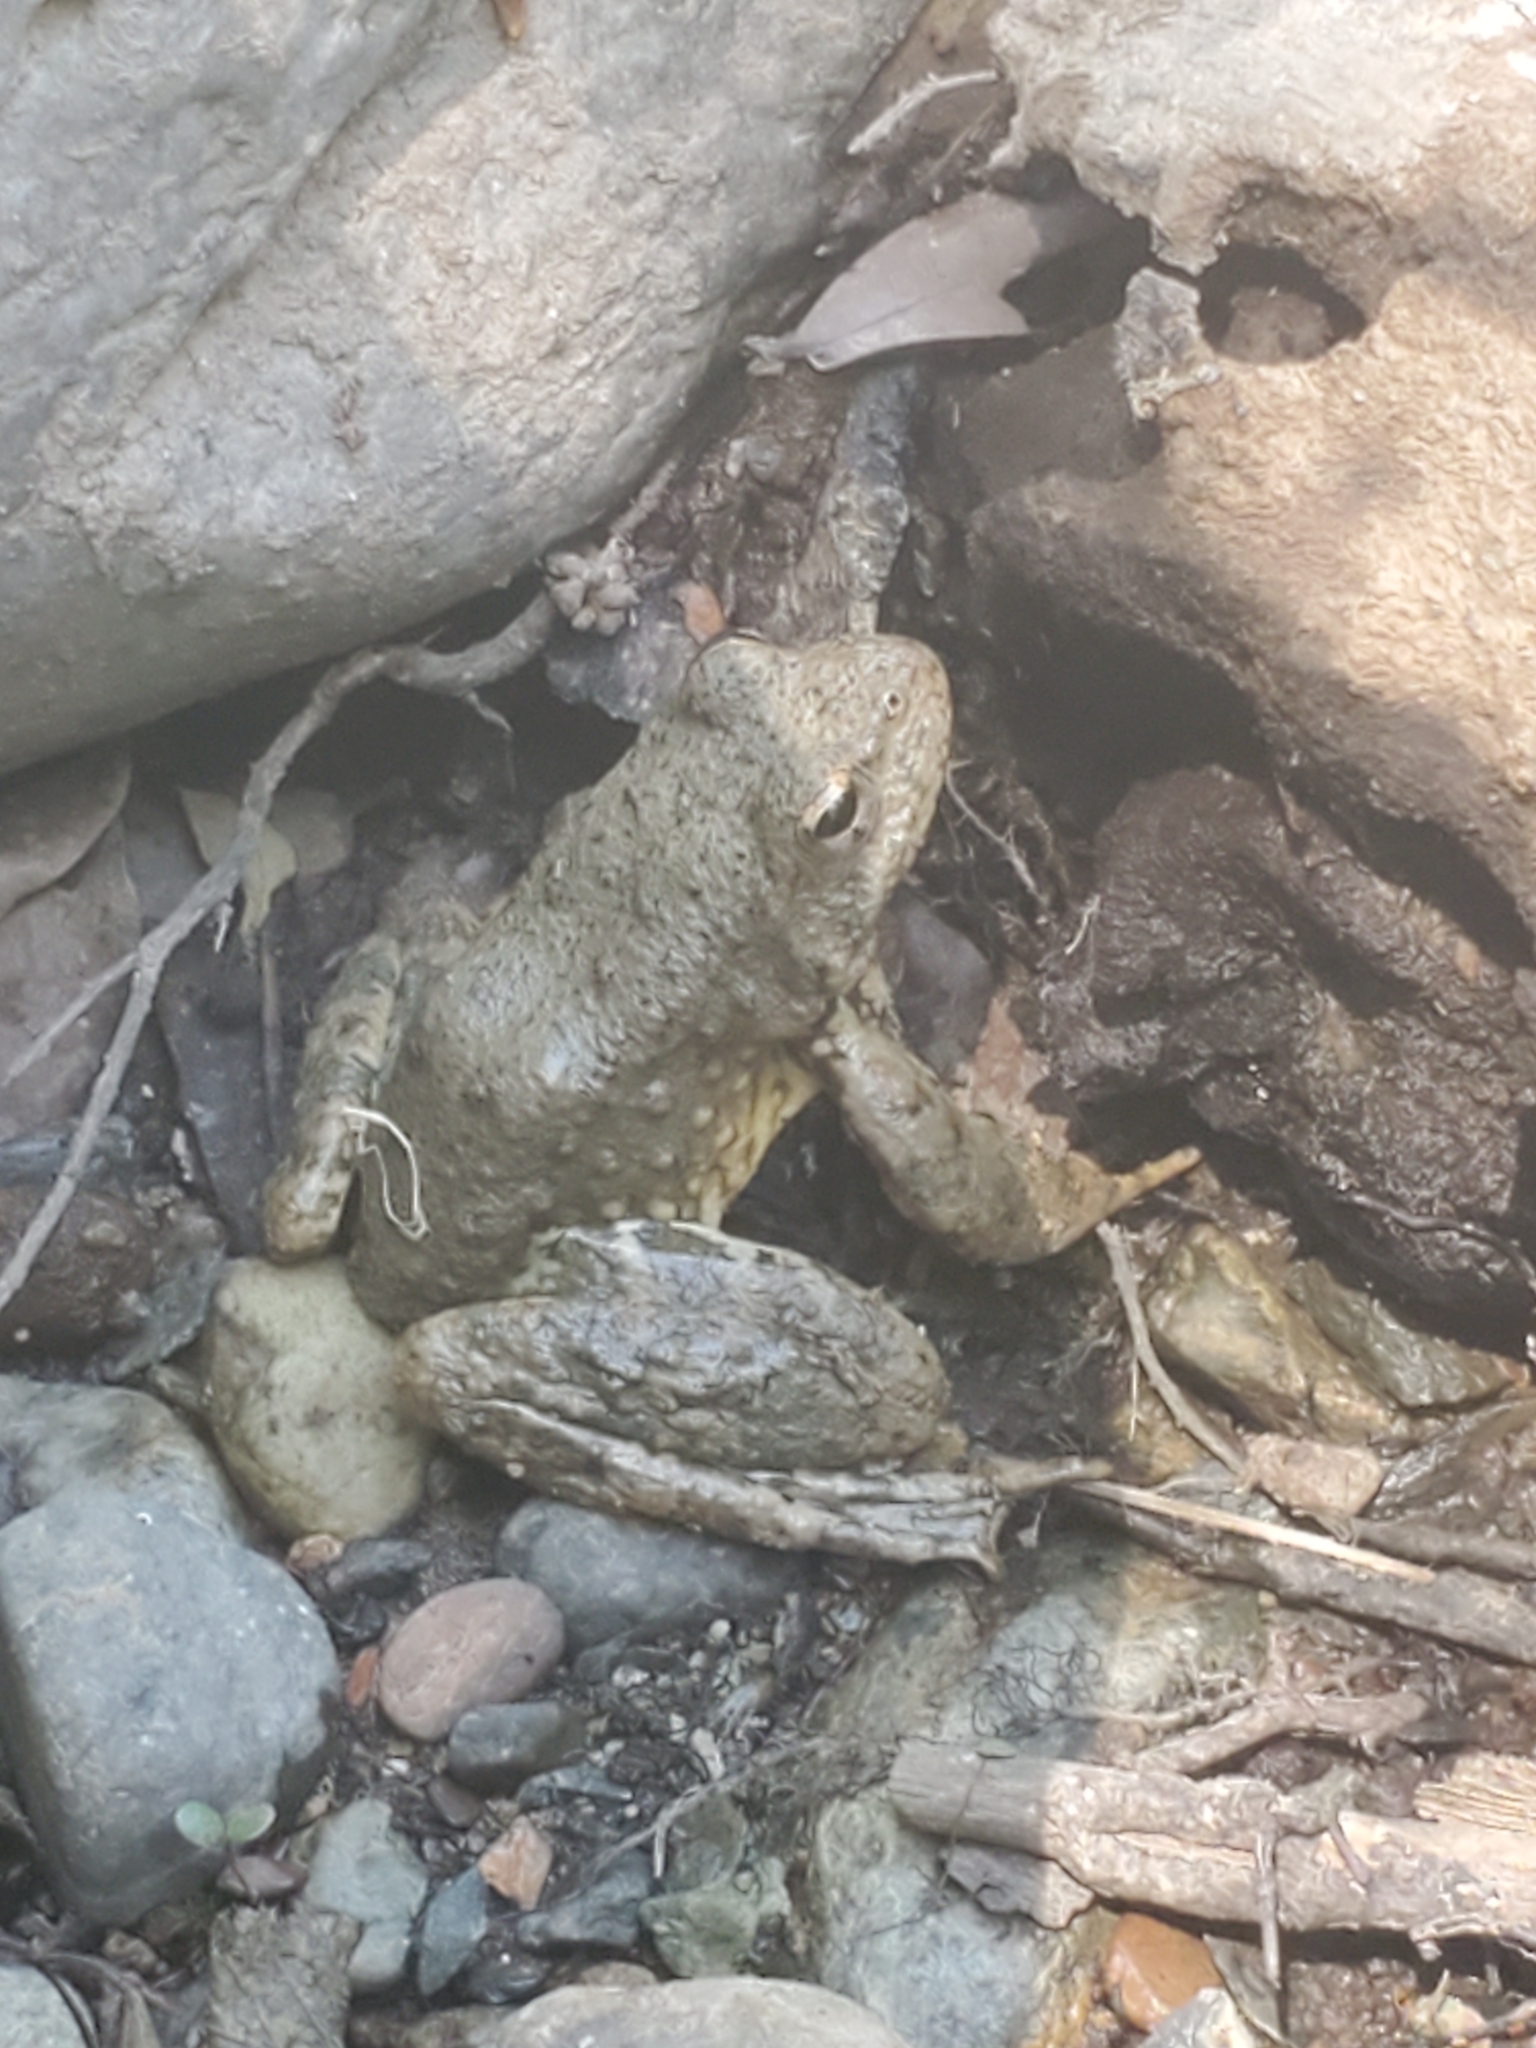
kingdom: Animalia
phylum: Chordata
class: Amphibia
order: Anura
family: Ranidae
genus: Rana
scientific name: Rana boylii
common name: Foothill yellow-legged frog
